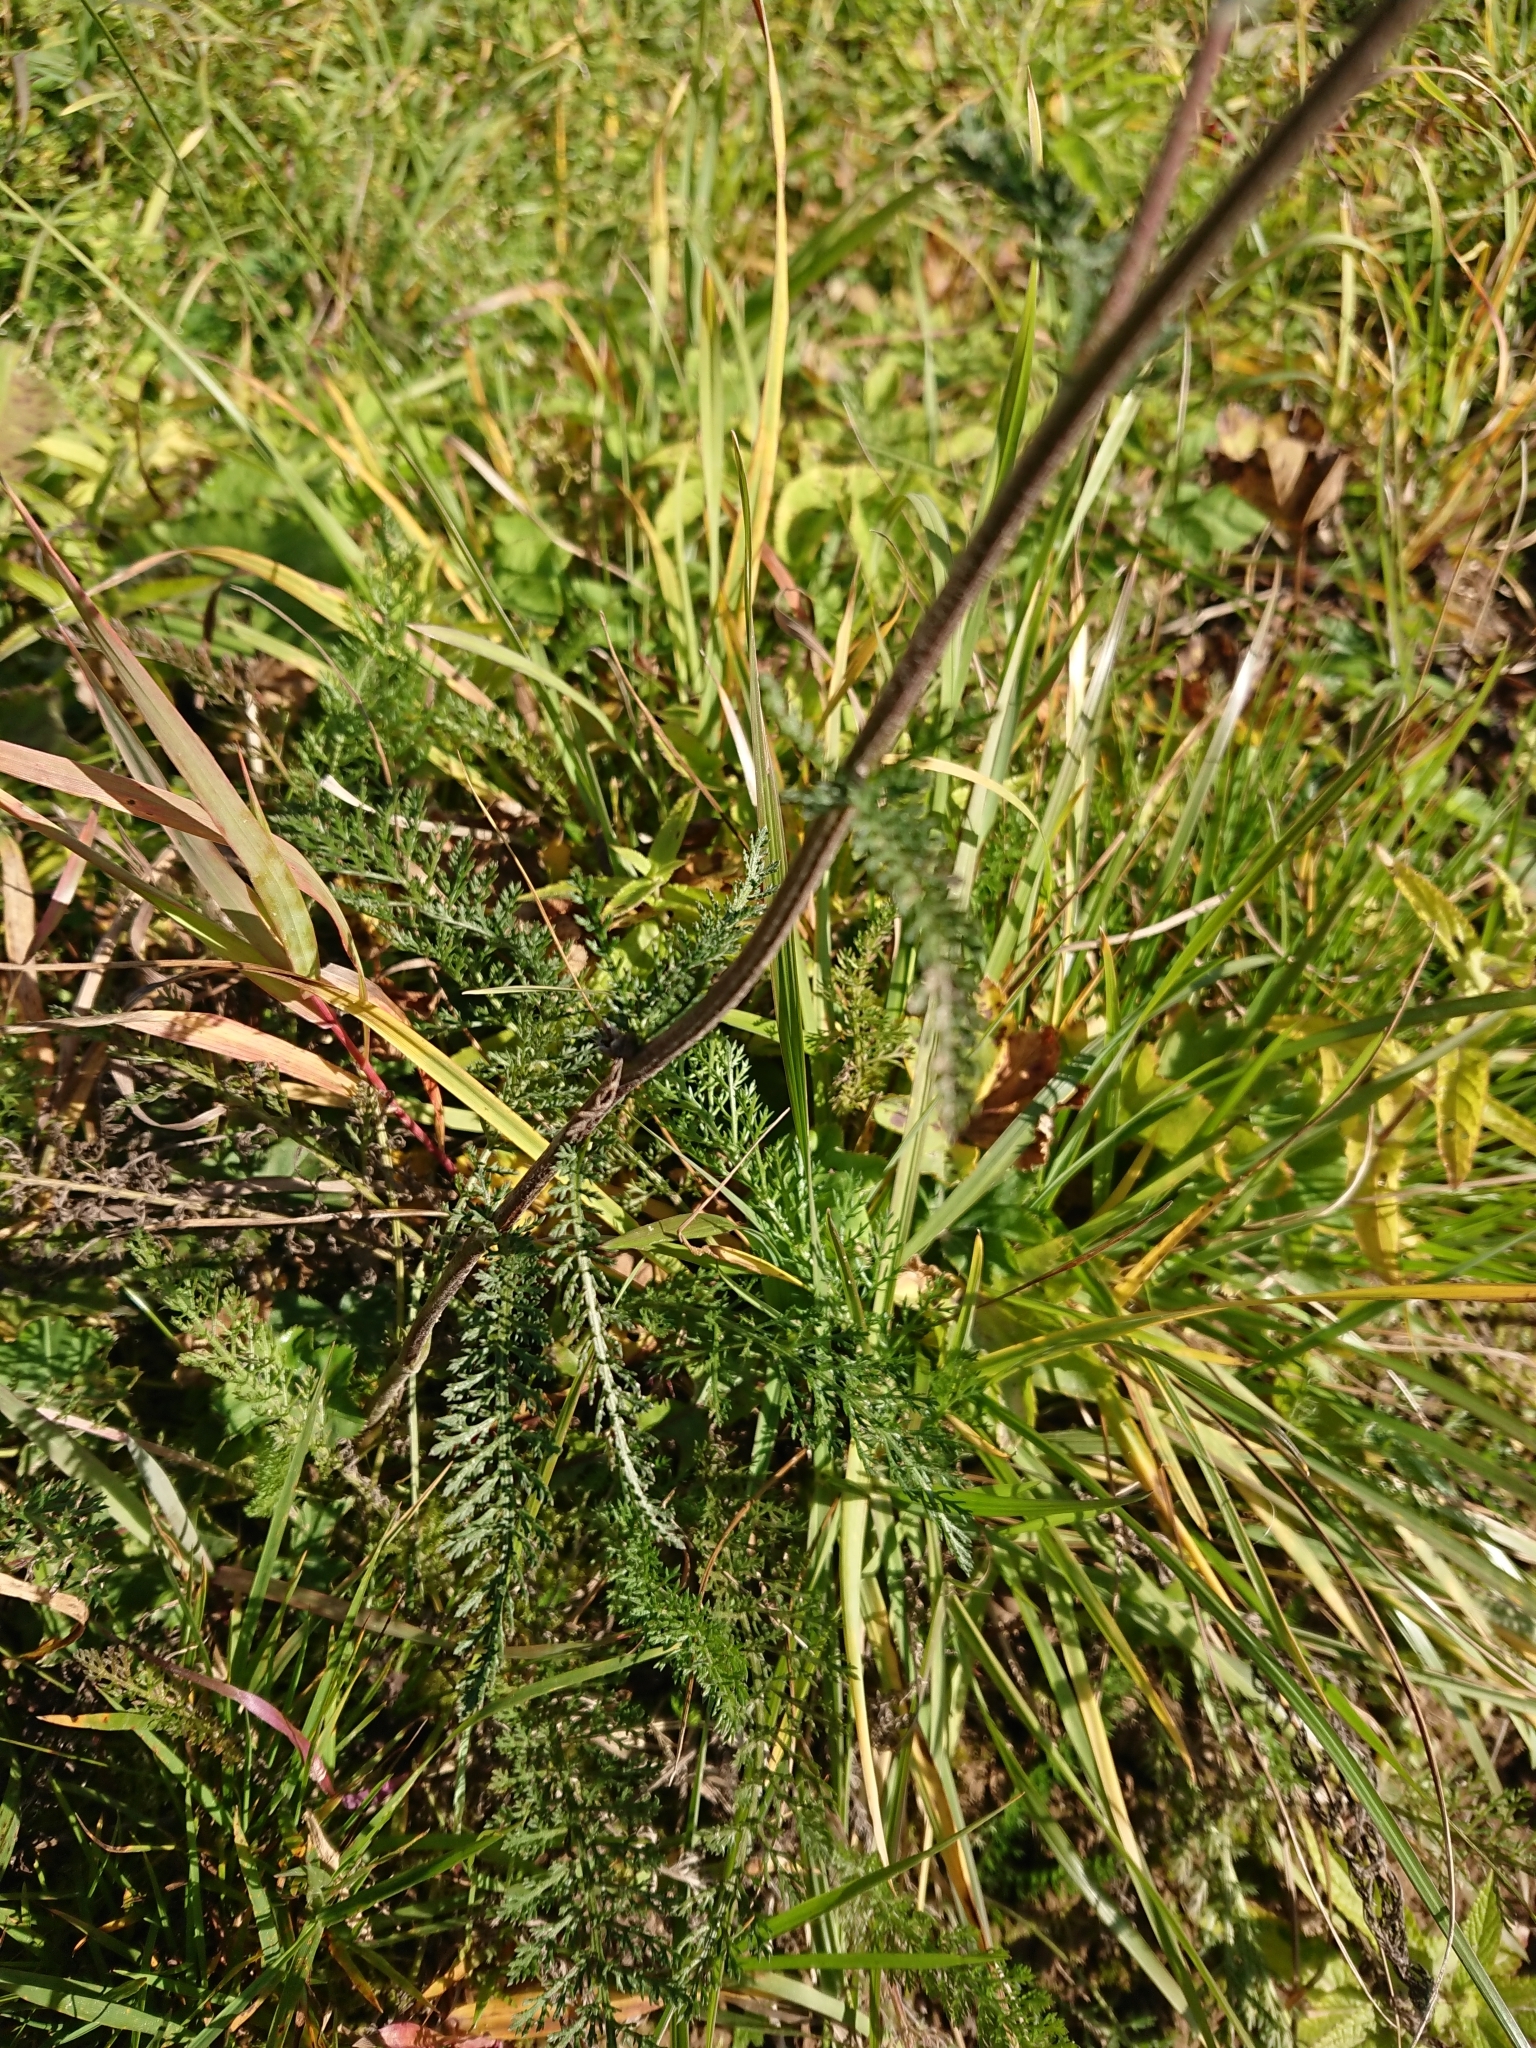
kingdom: Plantae
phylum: Tracheophyta
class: Magnoliopsida
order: Asterales
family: Asteraceae
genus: Achillea
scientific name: Achillea millefolium
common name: Yarrow
